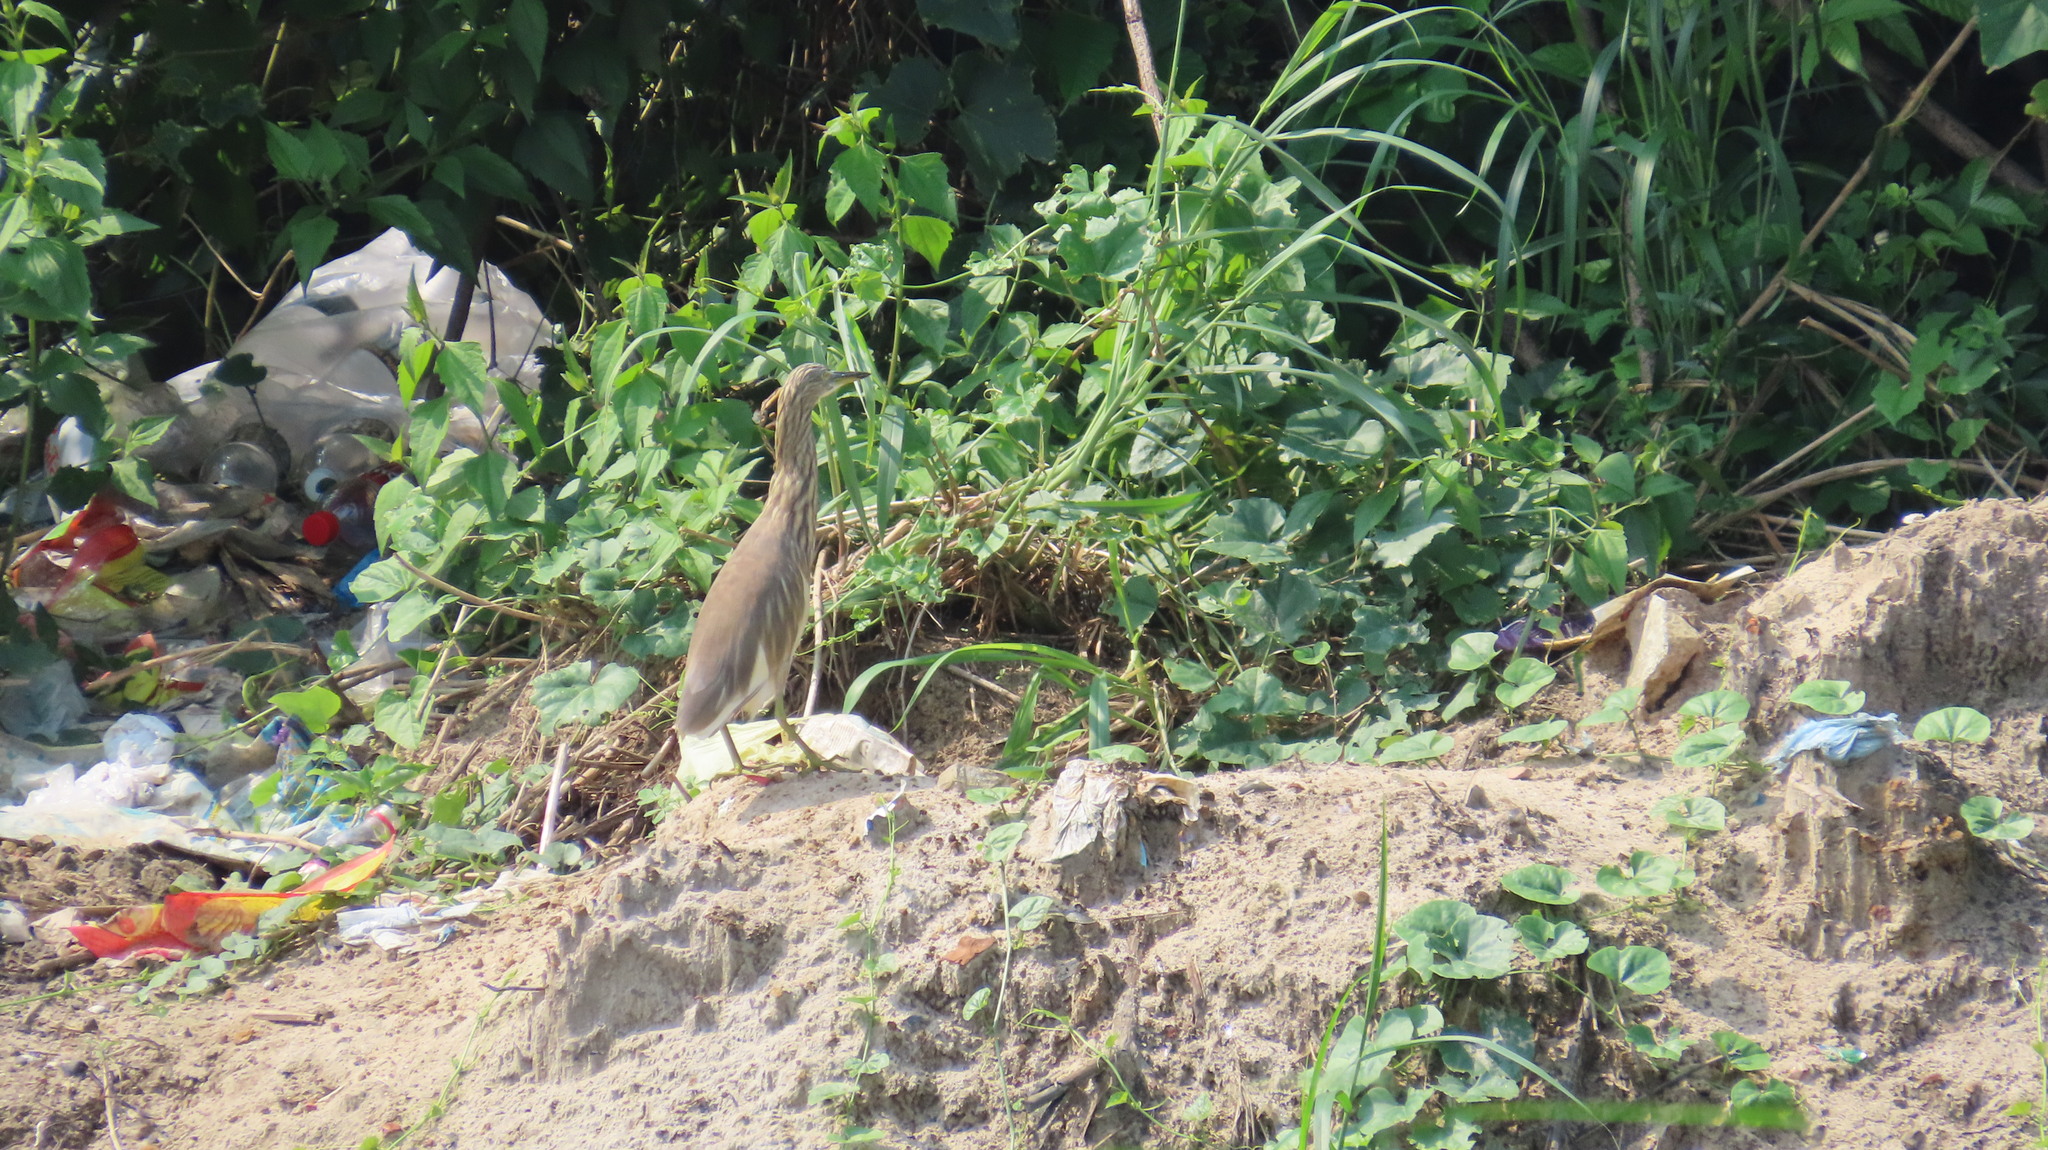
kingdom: Animalia
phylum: Chordata
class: Aves
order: Pelecaniformes
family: Ardeidae
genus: Ardeola
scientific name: Ardeola grayii
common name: Indian pond heron
